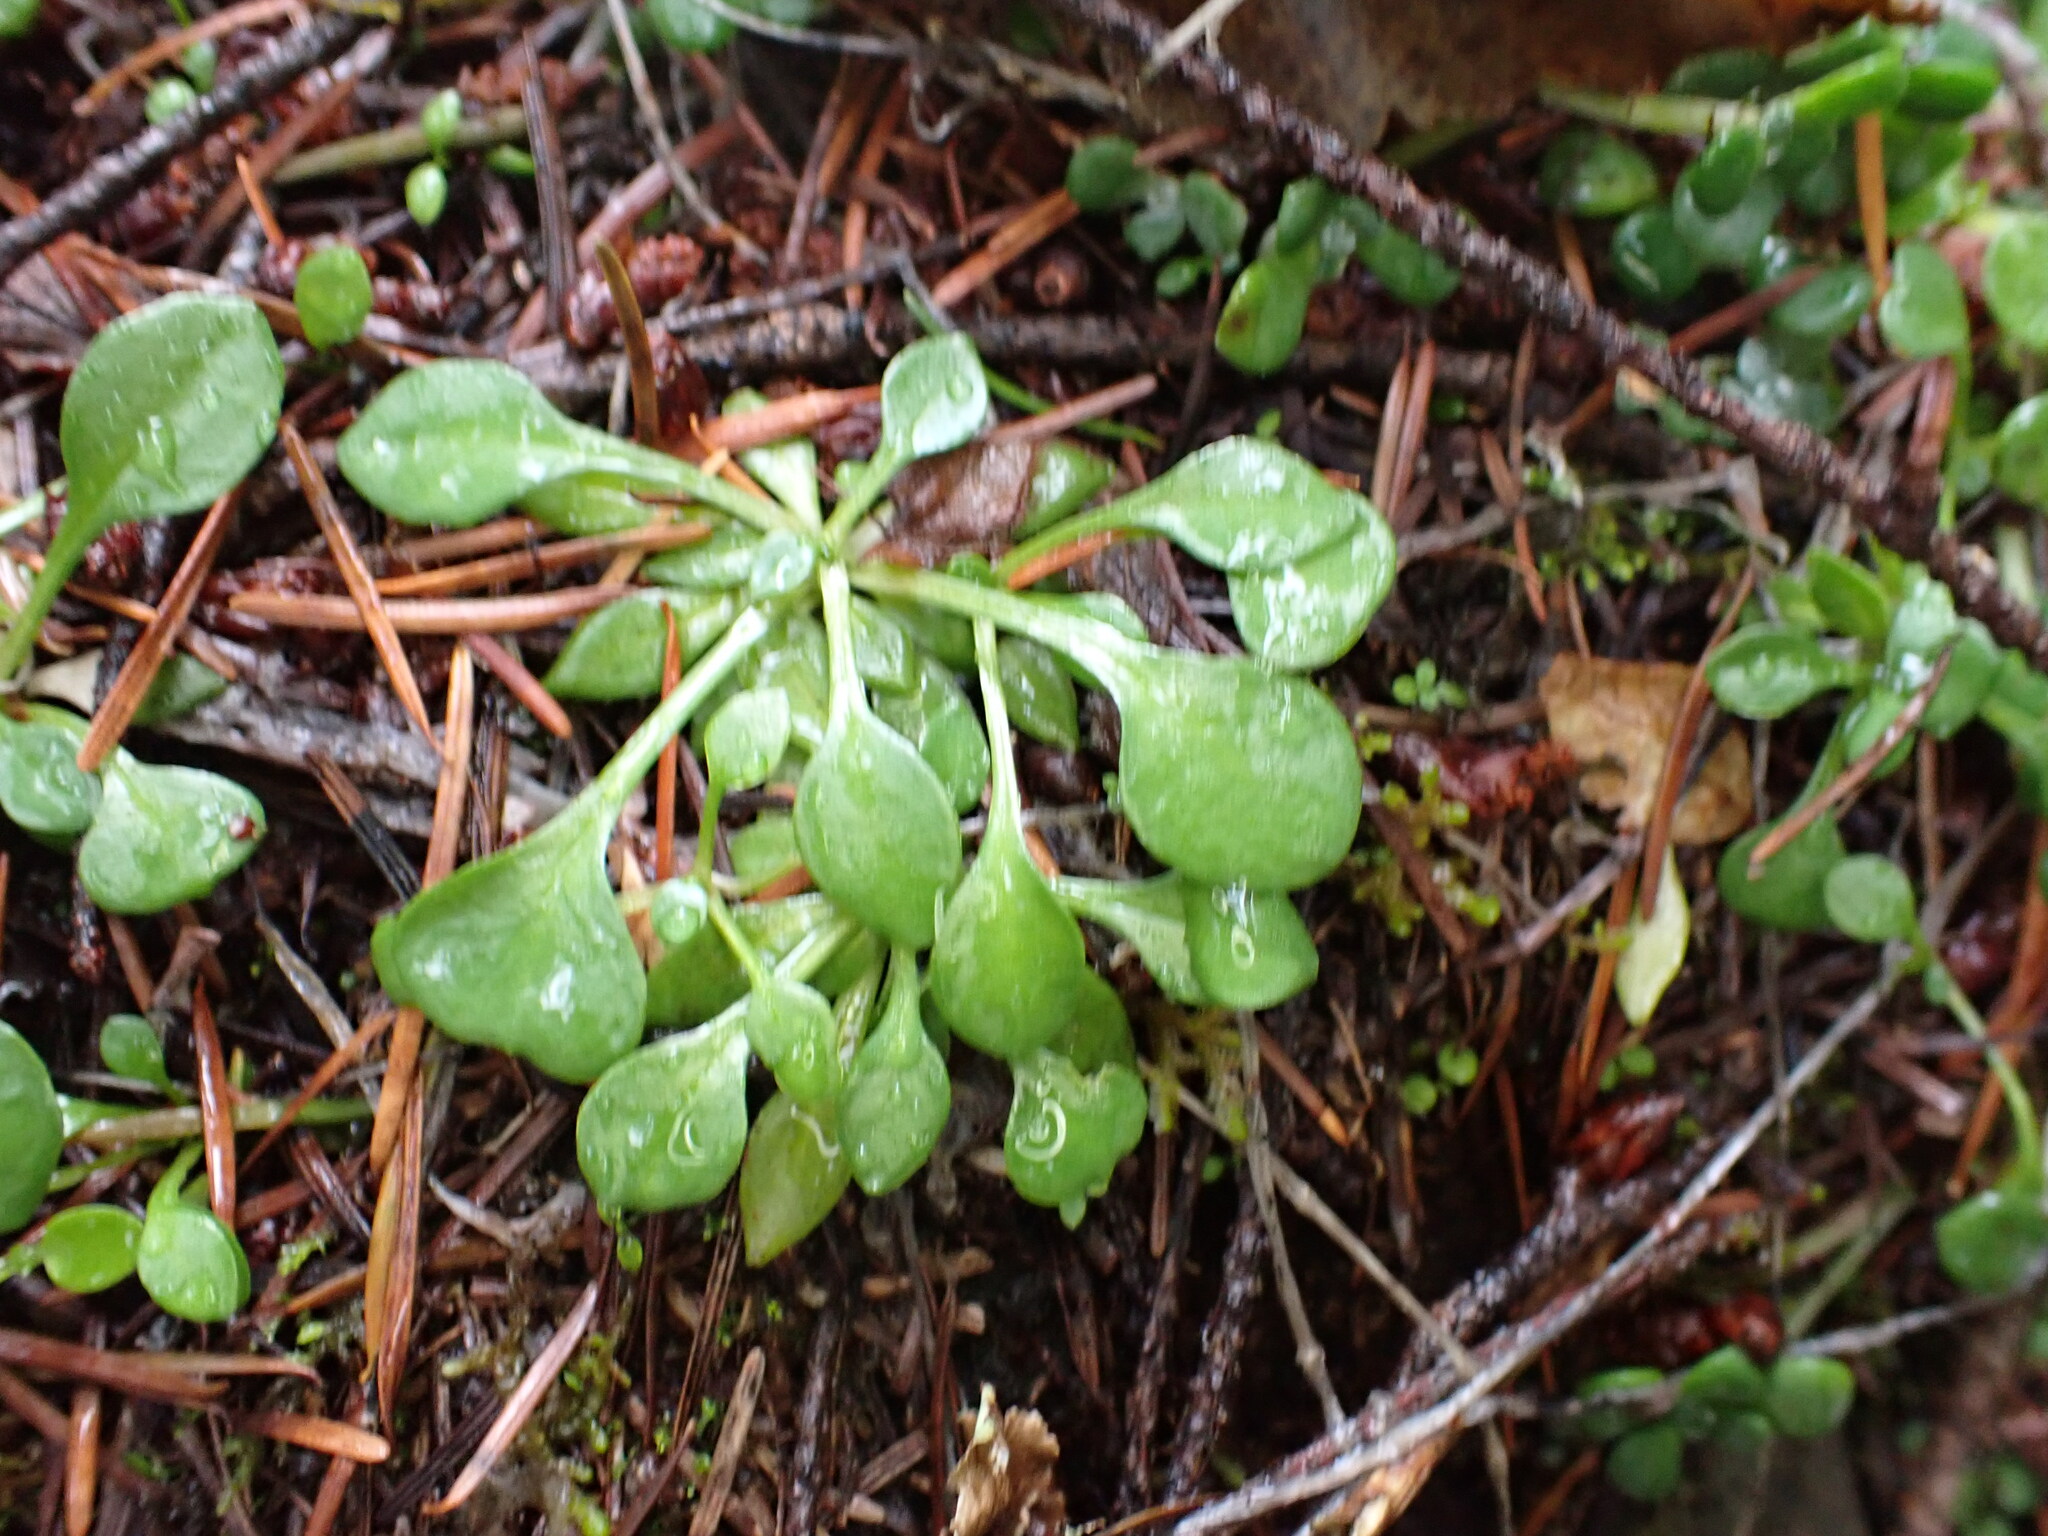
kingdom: Plantae
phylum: Tracheophyta
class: Magnoliopsida
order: Caryophyllales
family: Montiaceae
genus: Montia
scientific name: Montia parvifolia
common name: Small-leaved blinks
